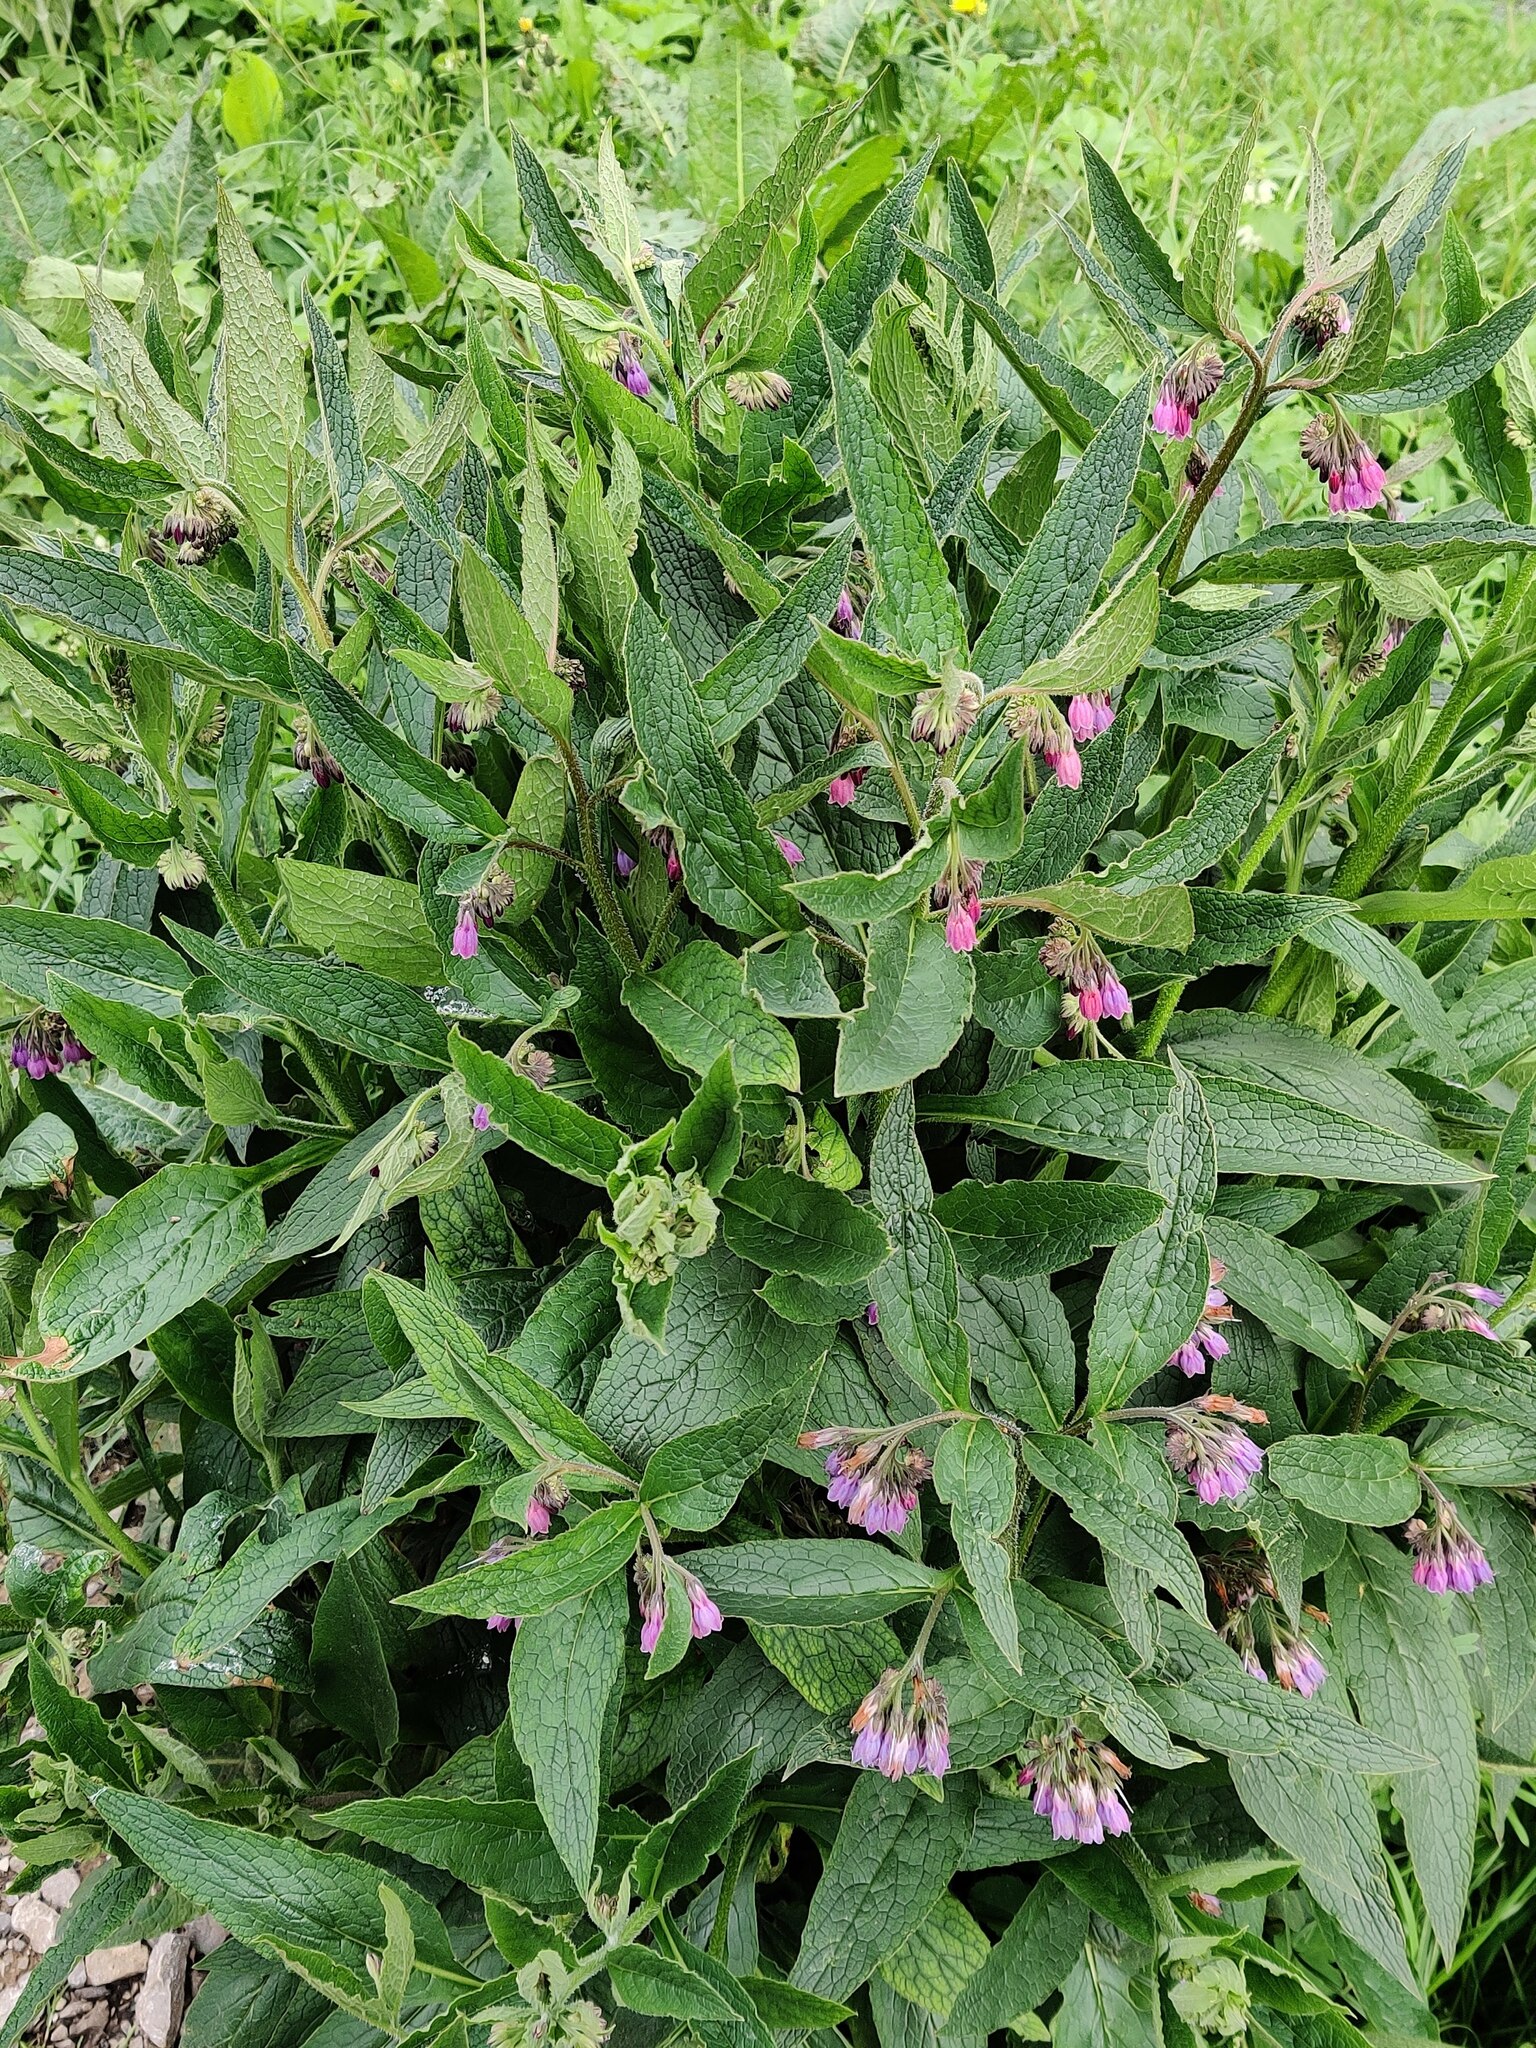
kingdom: Plantae
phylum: Tracheophyta
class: Magnoliopsida
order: Boraginales
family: Boraginaceae
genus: Symphytum
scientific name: Symphytum officinale
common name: Common comfrey
